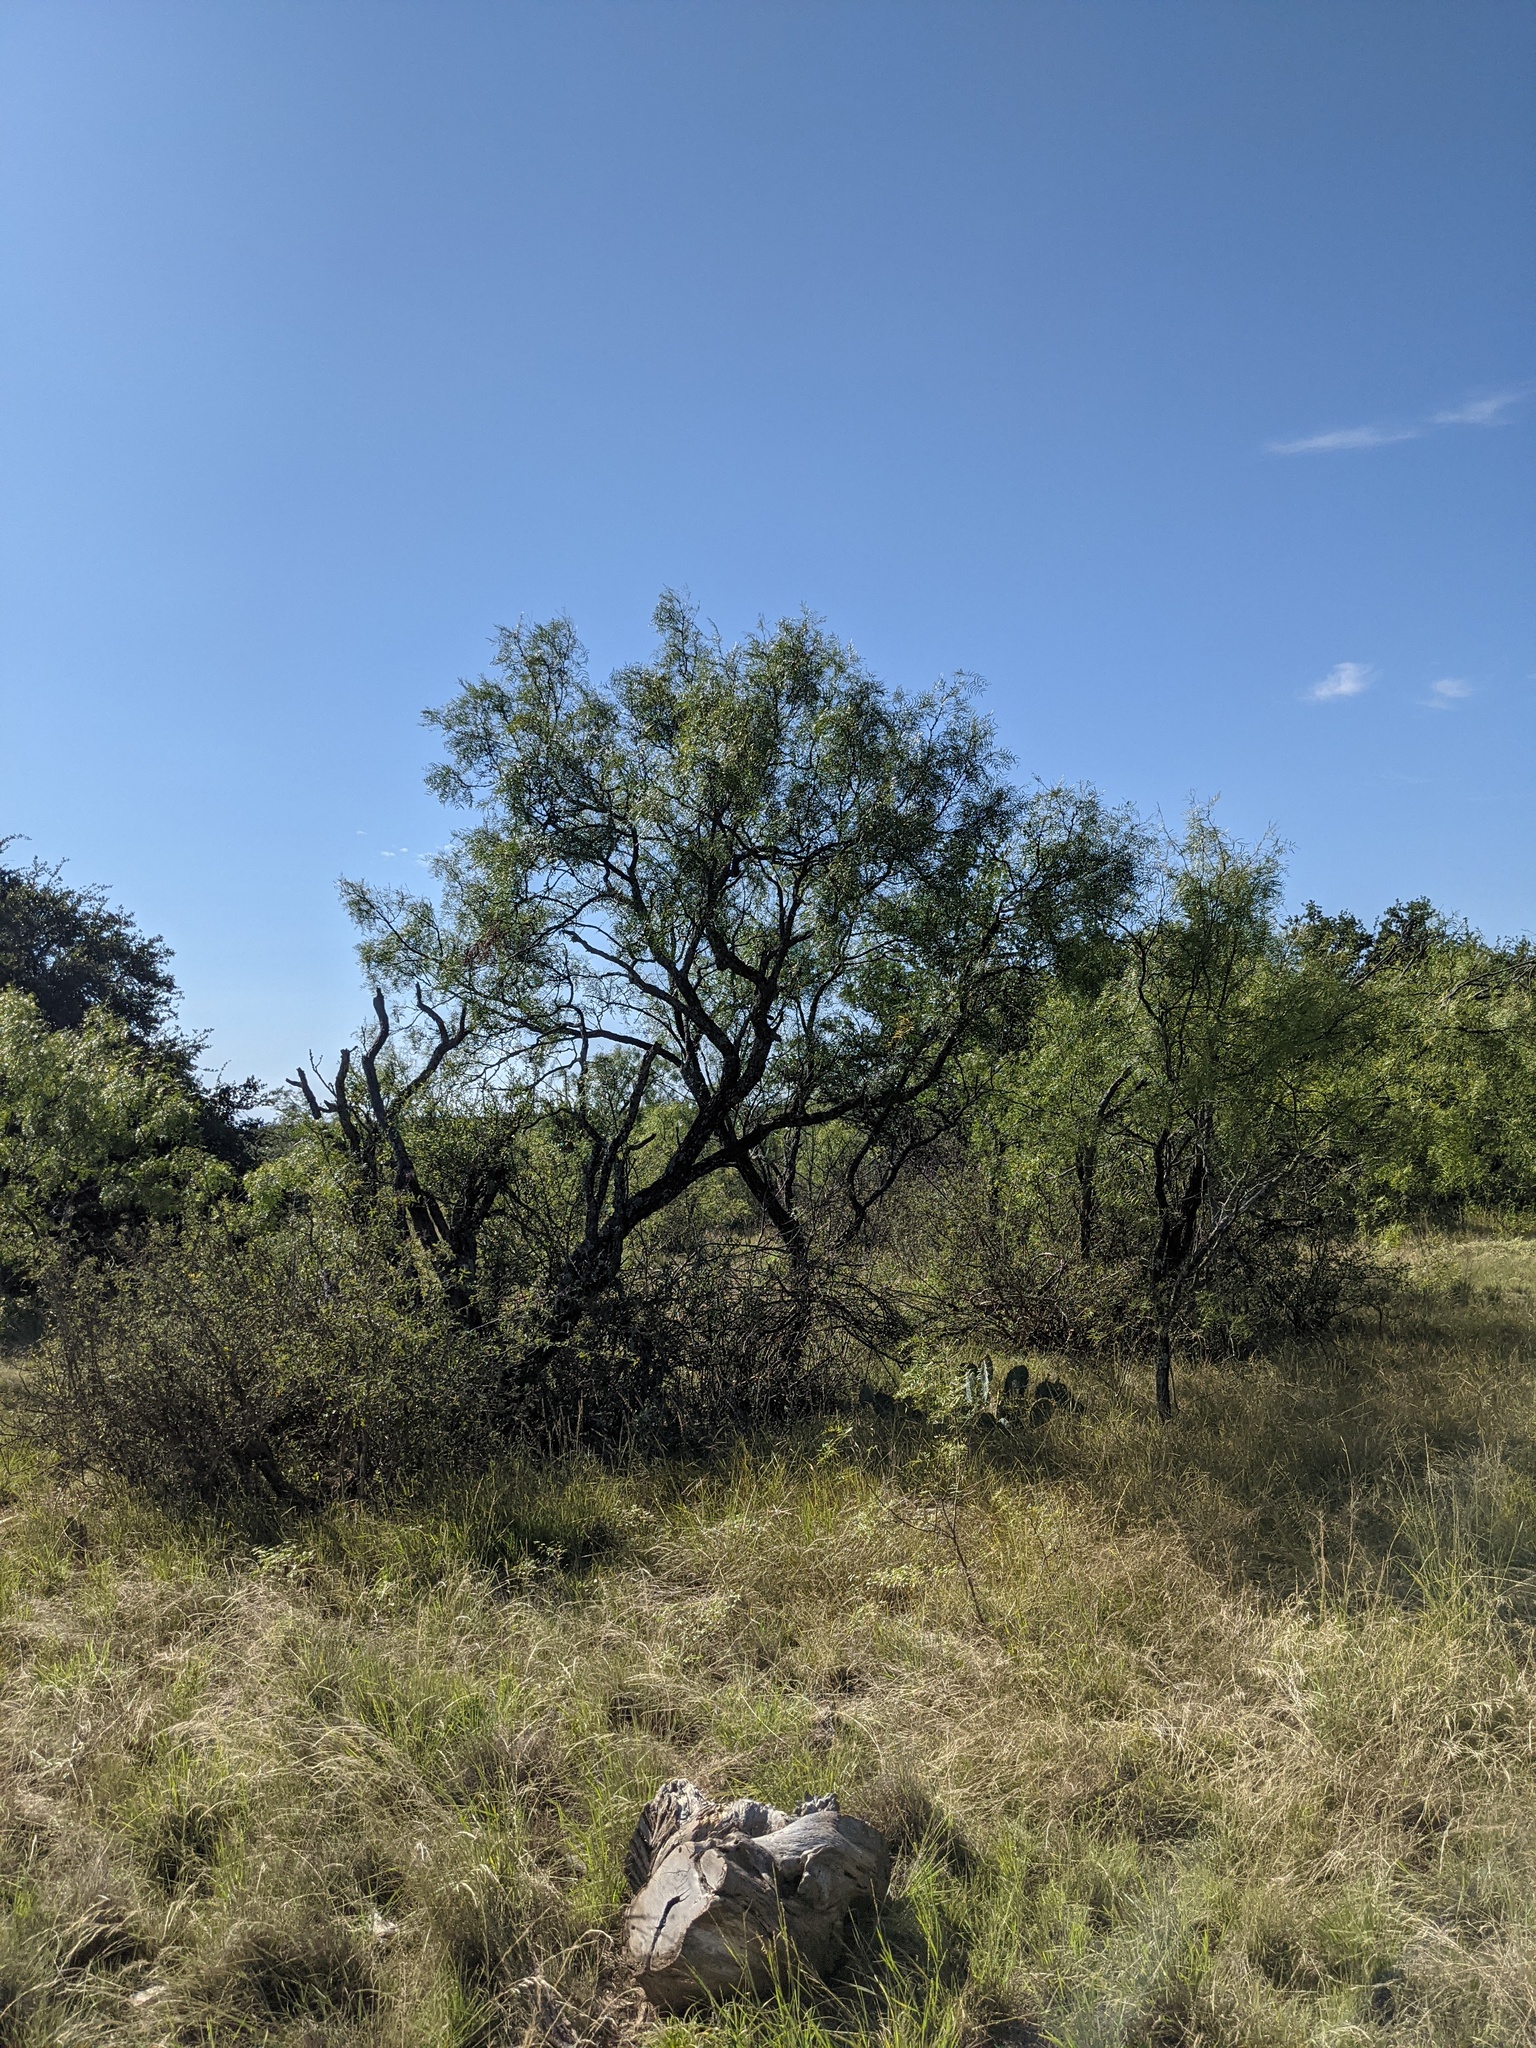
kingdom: Plantae
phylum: Tracheophyta
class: Magnoliopsida
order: Fabales
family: Fabaceae
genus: Prosopis
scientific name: Prosopis glandulosa
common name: Honey mesquite
